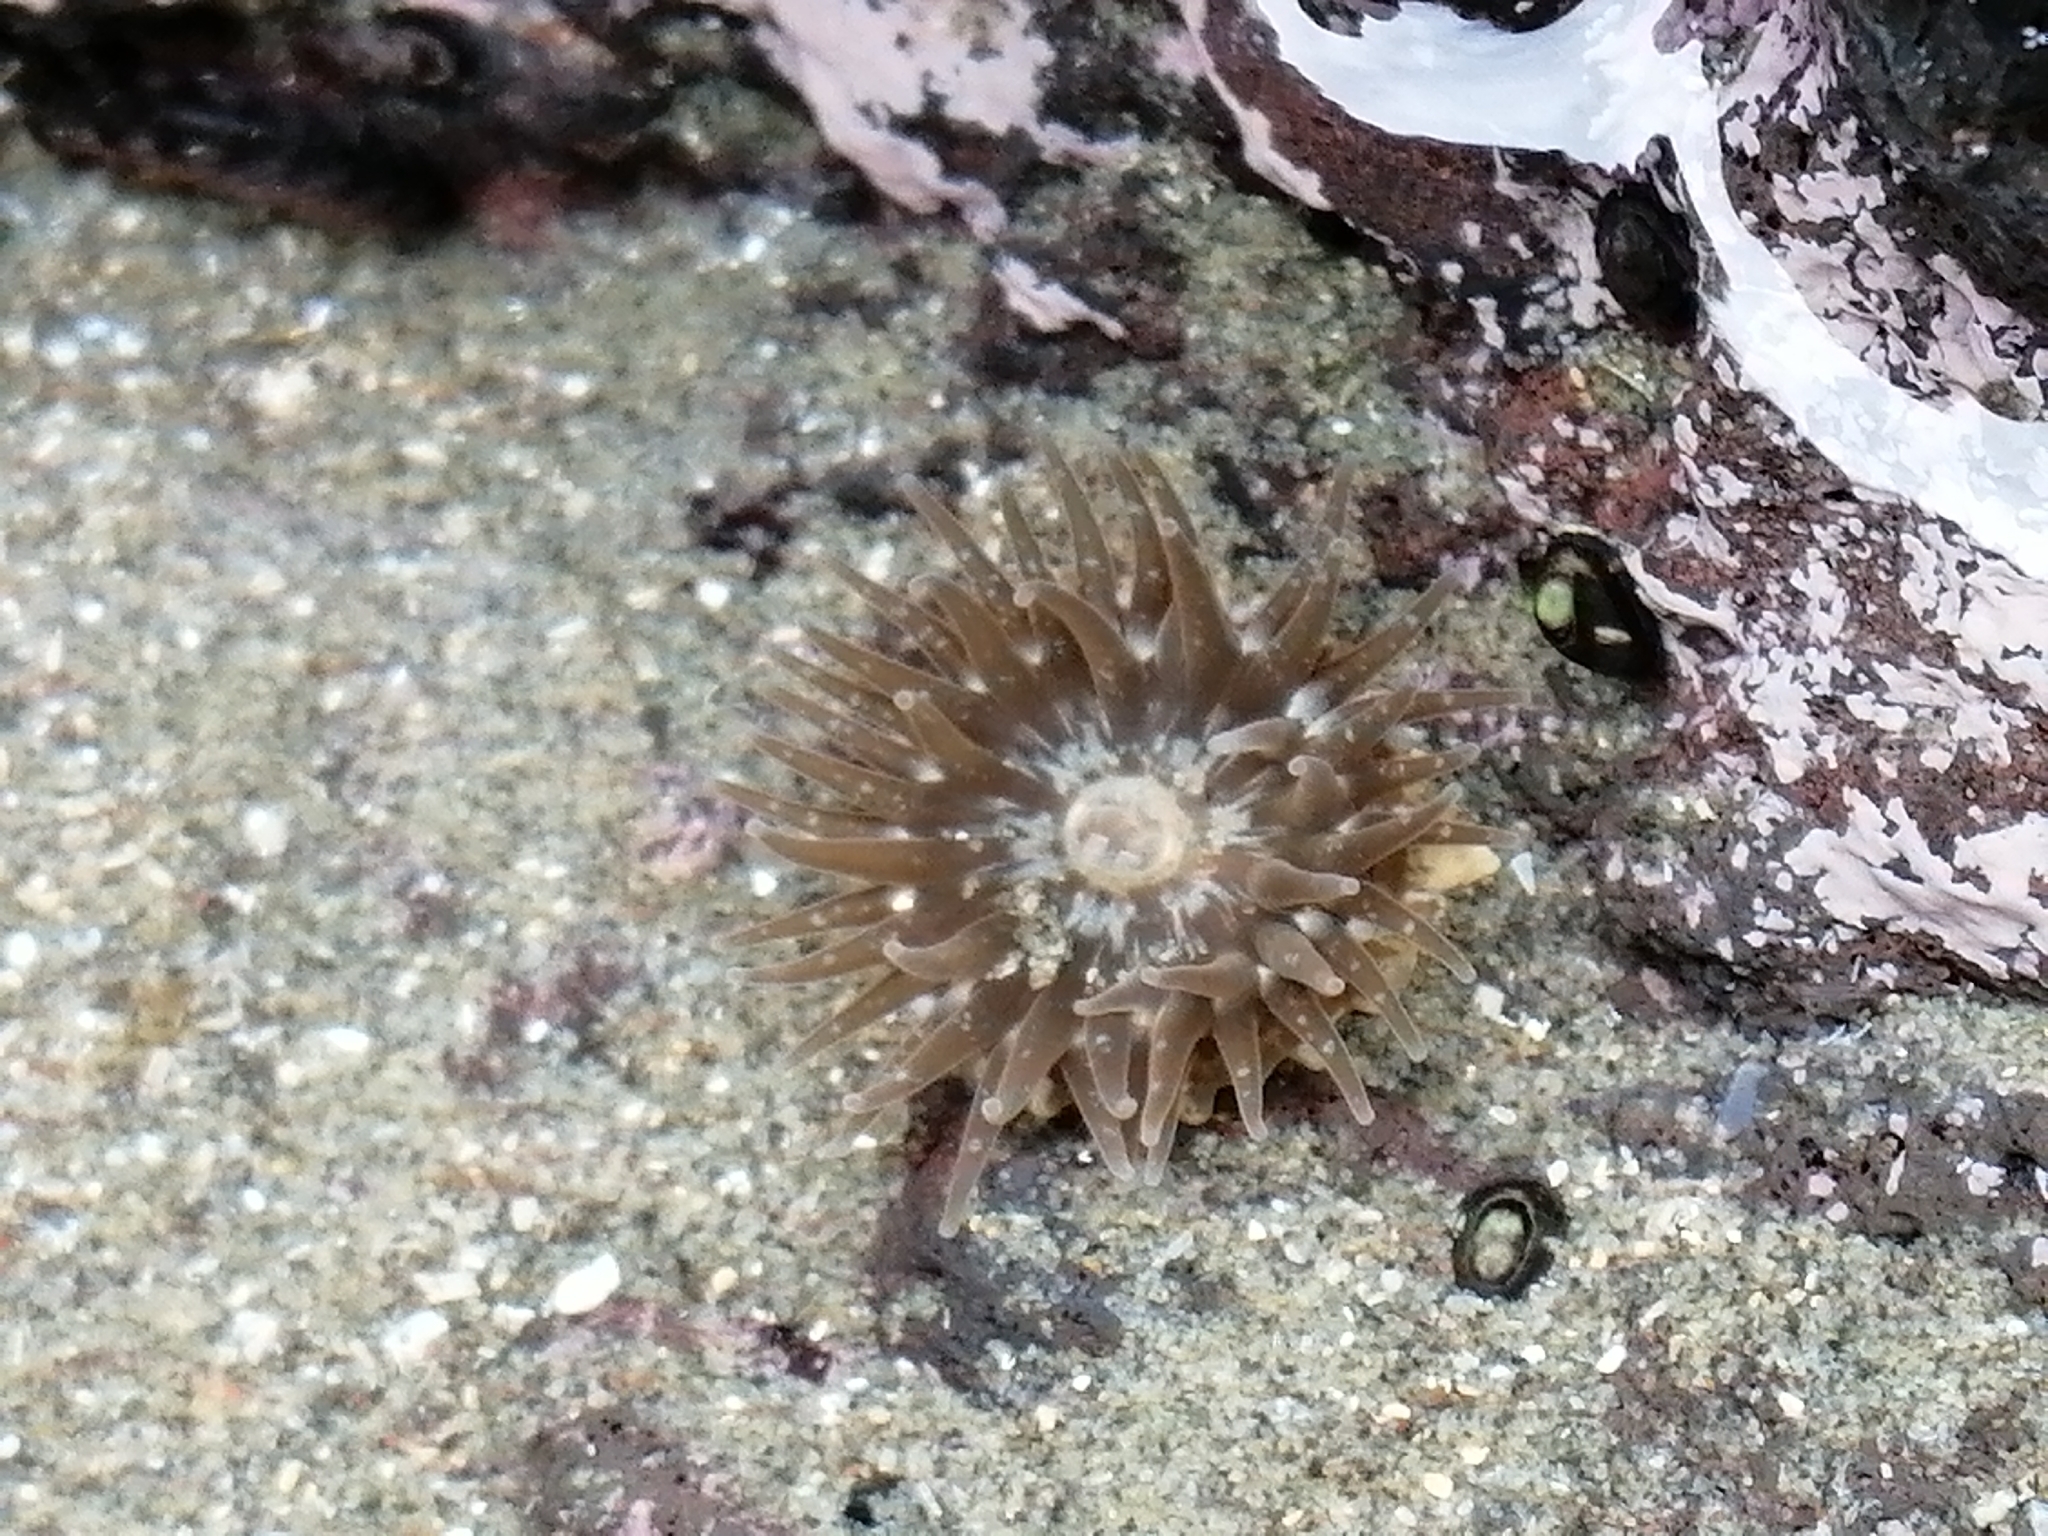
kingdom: Animalia
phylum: Cnidaria
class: Anthozoa
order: Actiniaria
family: Actiniidae
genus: Anthopleura
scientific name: Anthopleura hermaphroditica
